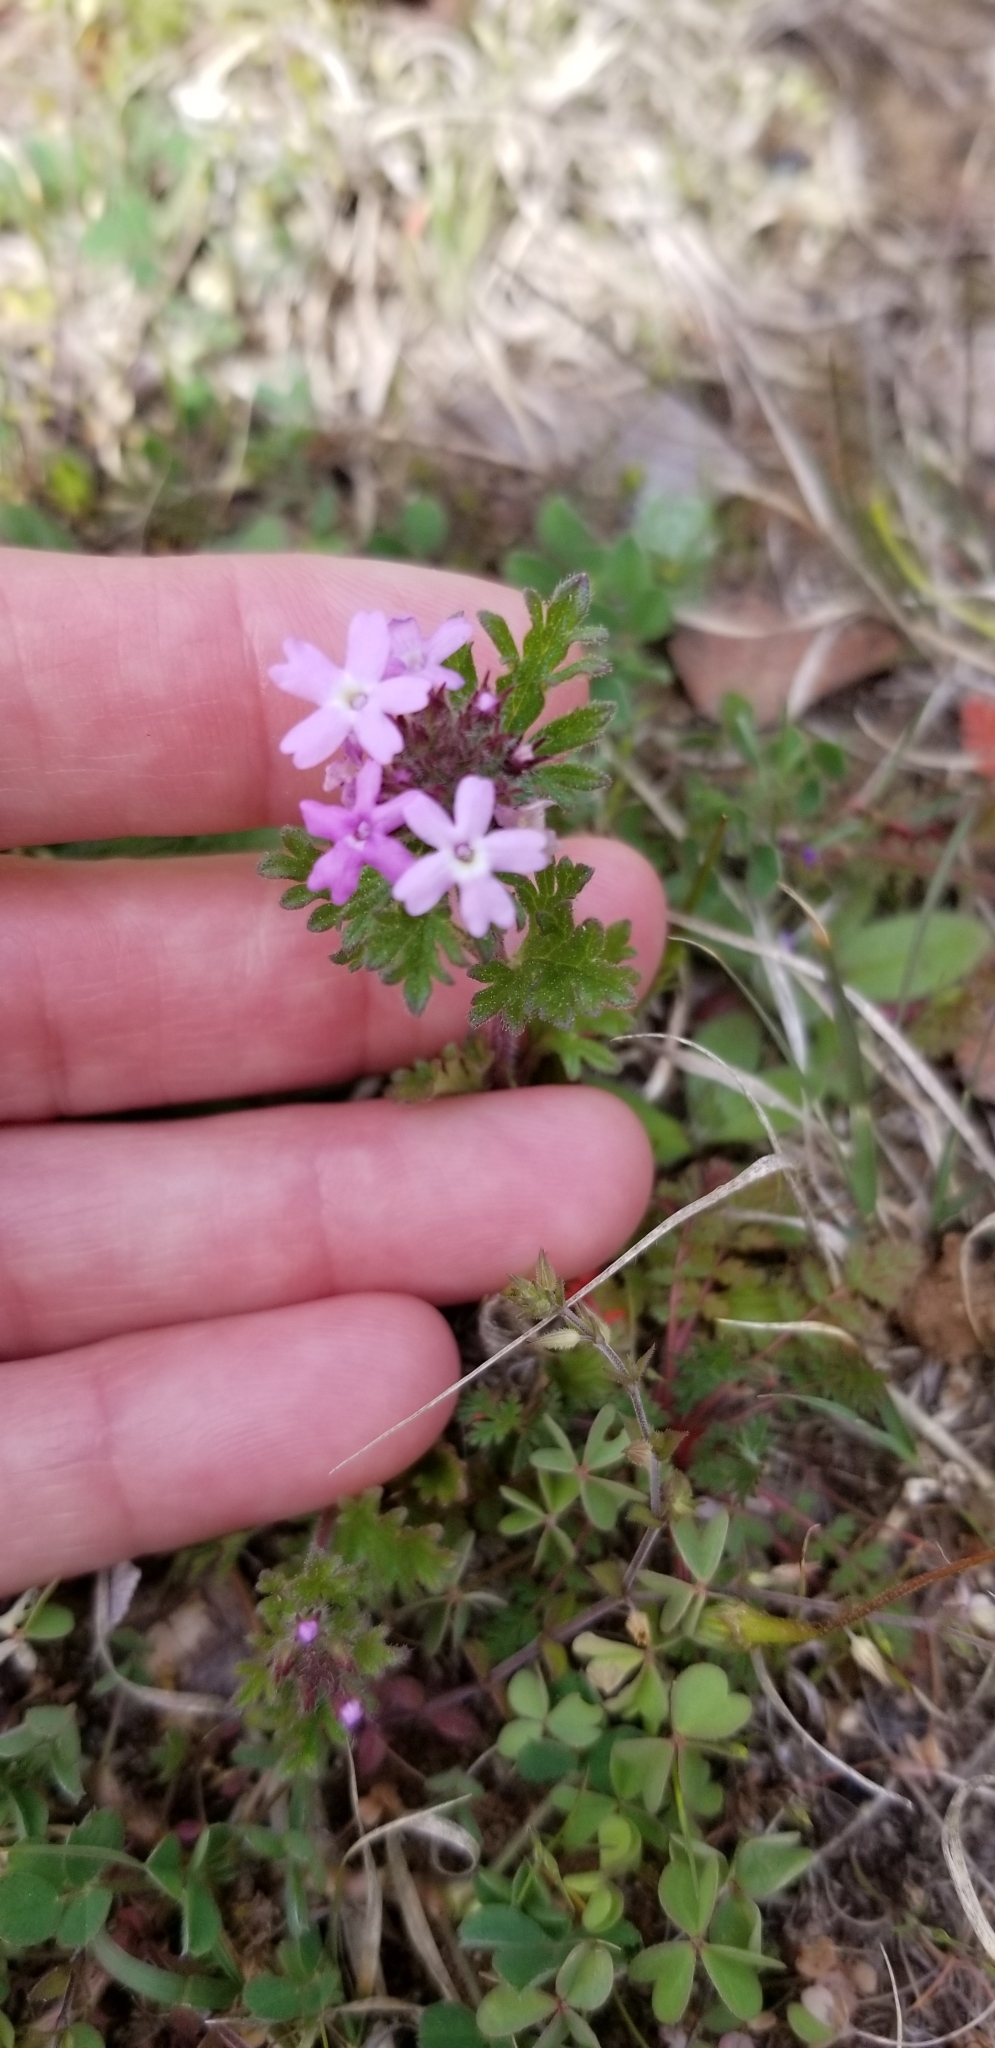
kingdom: Plantae
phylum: Tracheophyta
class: Magnoliopsida
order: Lamiales
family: Verbenaceae
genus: Verbena
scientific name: Verbena pumila
